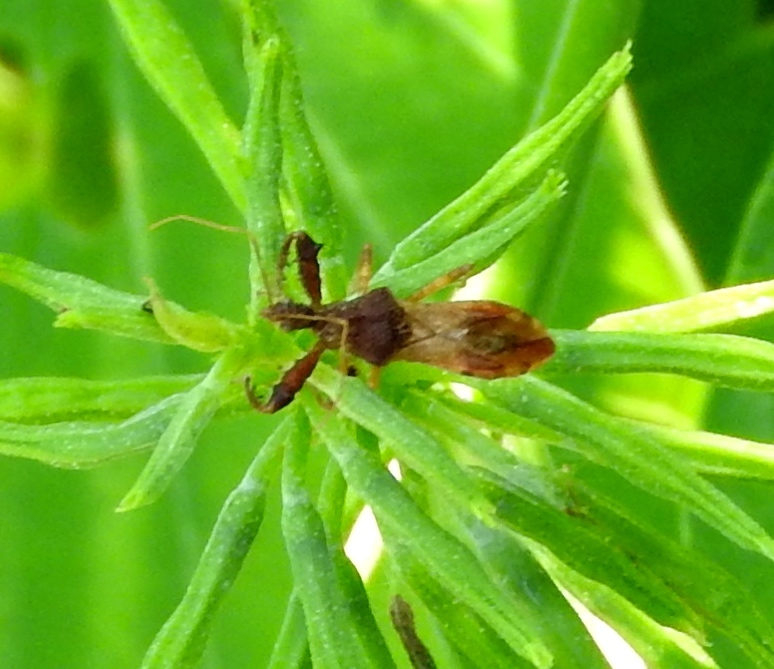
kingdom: Animalia
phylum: Arthropoda
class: Insecta
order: Hemiptera
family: Reduviidae
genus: Sinea
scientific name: Sinea
